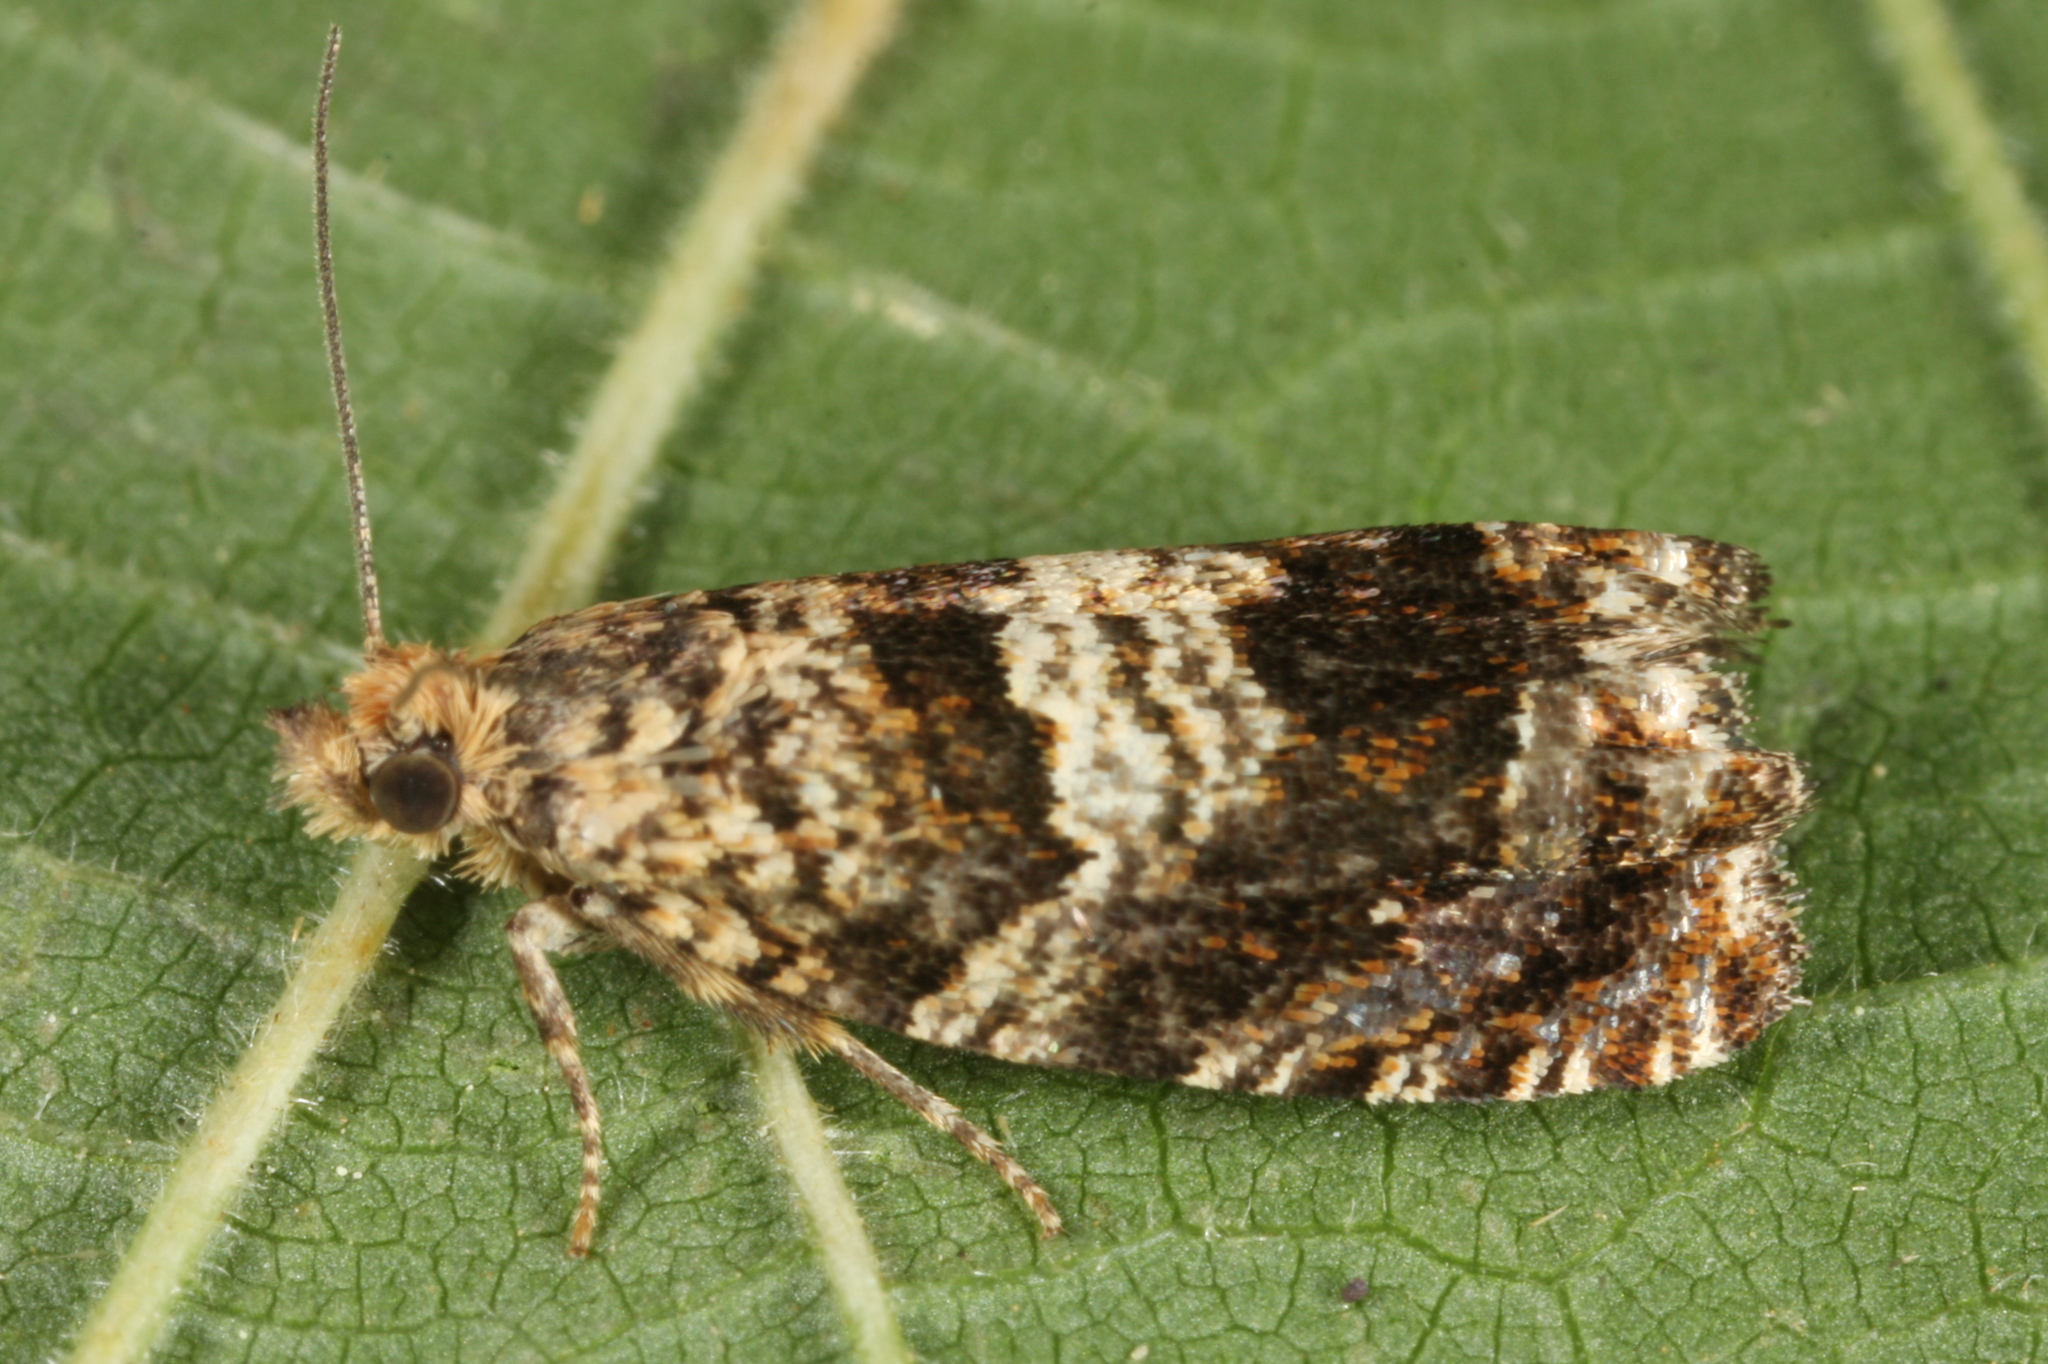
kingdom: Animalia
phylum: Arthropoda
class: Insecta
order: Lepidoptera
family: Tortricidae
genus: Epiblema
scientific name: Epiblema hepaticana
